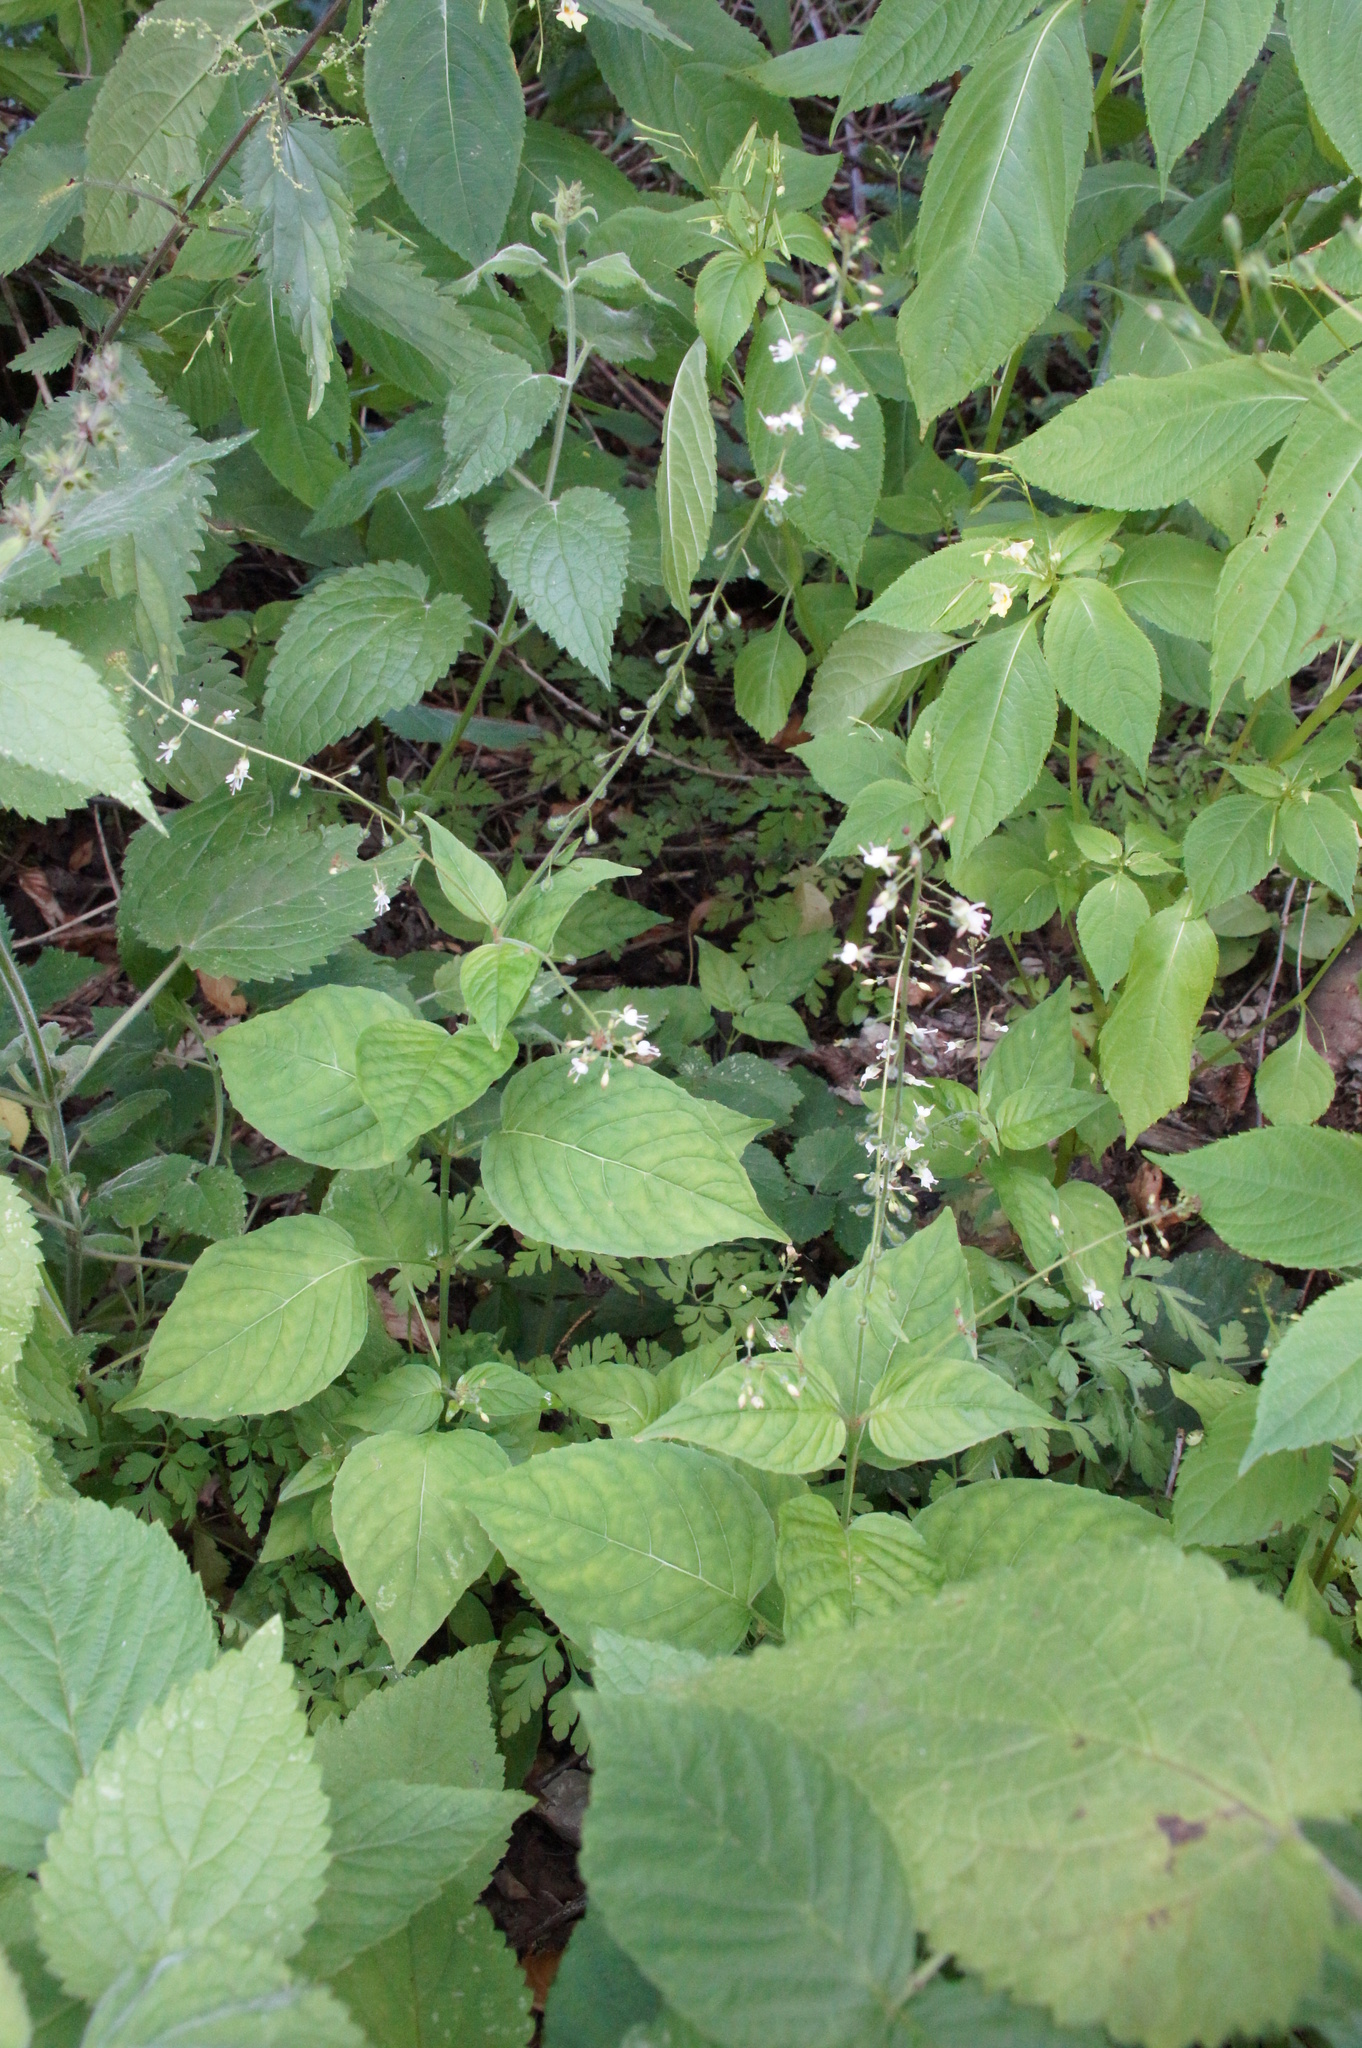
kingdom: Plantae
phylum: Tracheophyta
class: Magnoliopsida
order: Myrtales
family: Onagraceae
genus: Circaea
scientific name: Circaea lutetiana
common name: Enchanter's-nightshade
